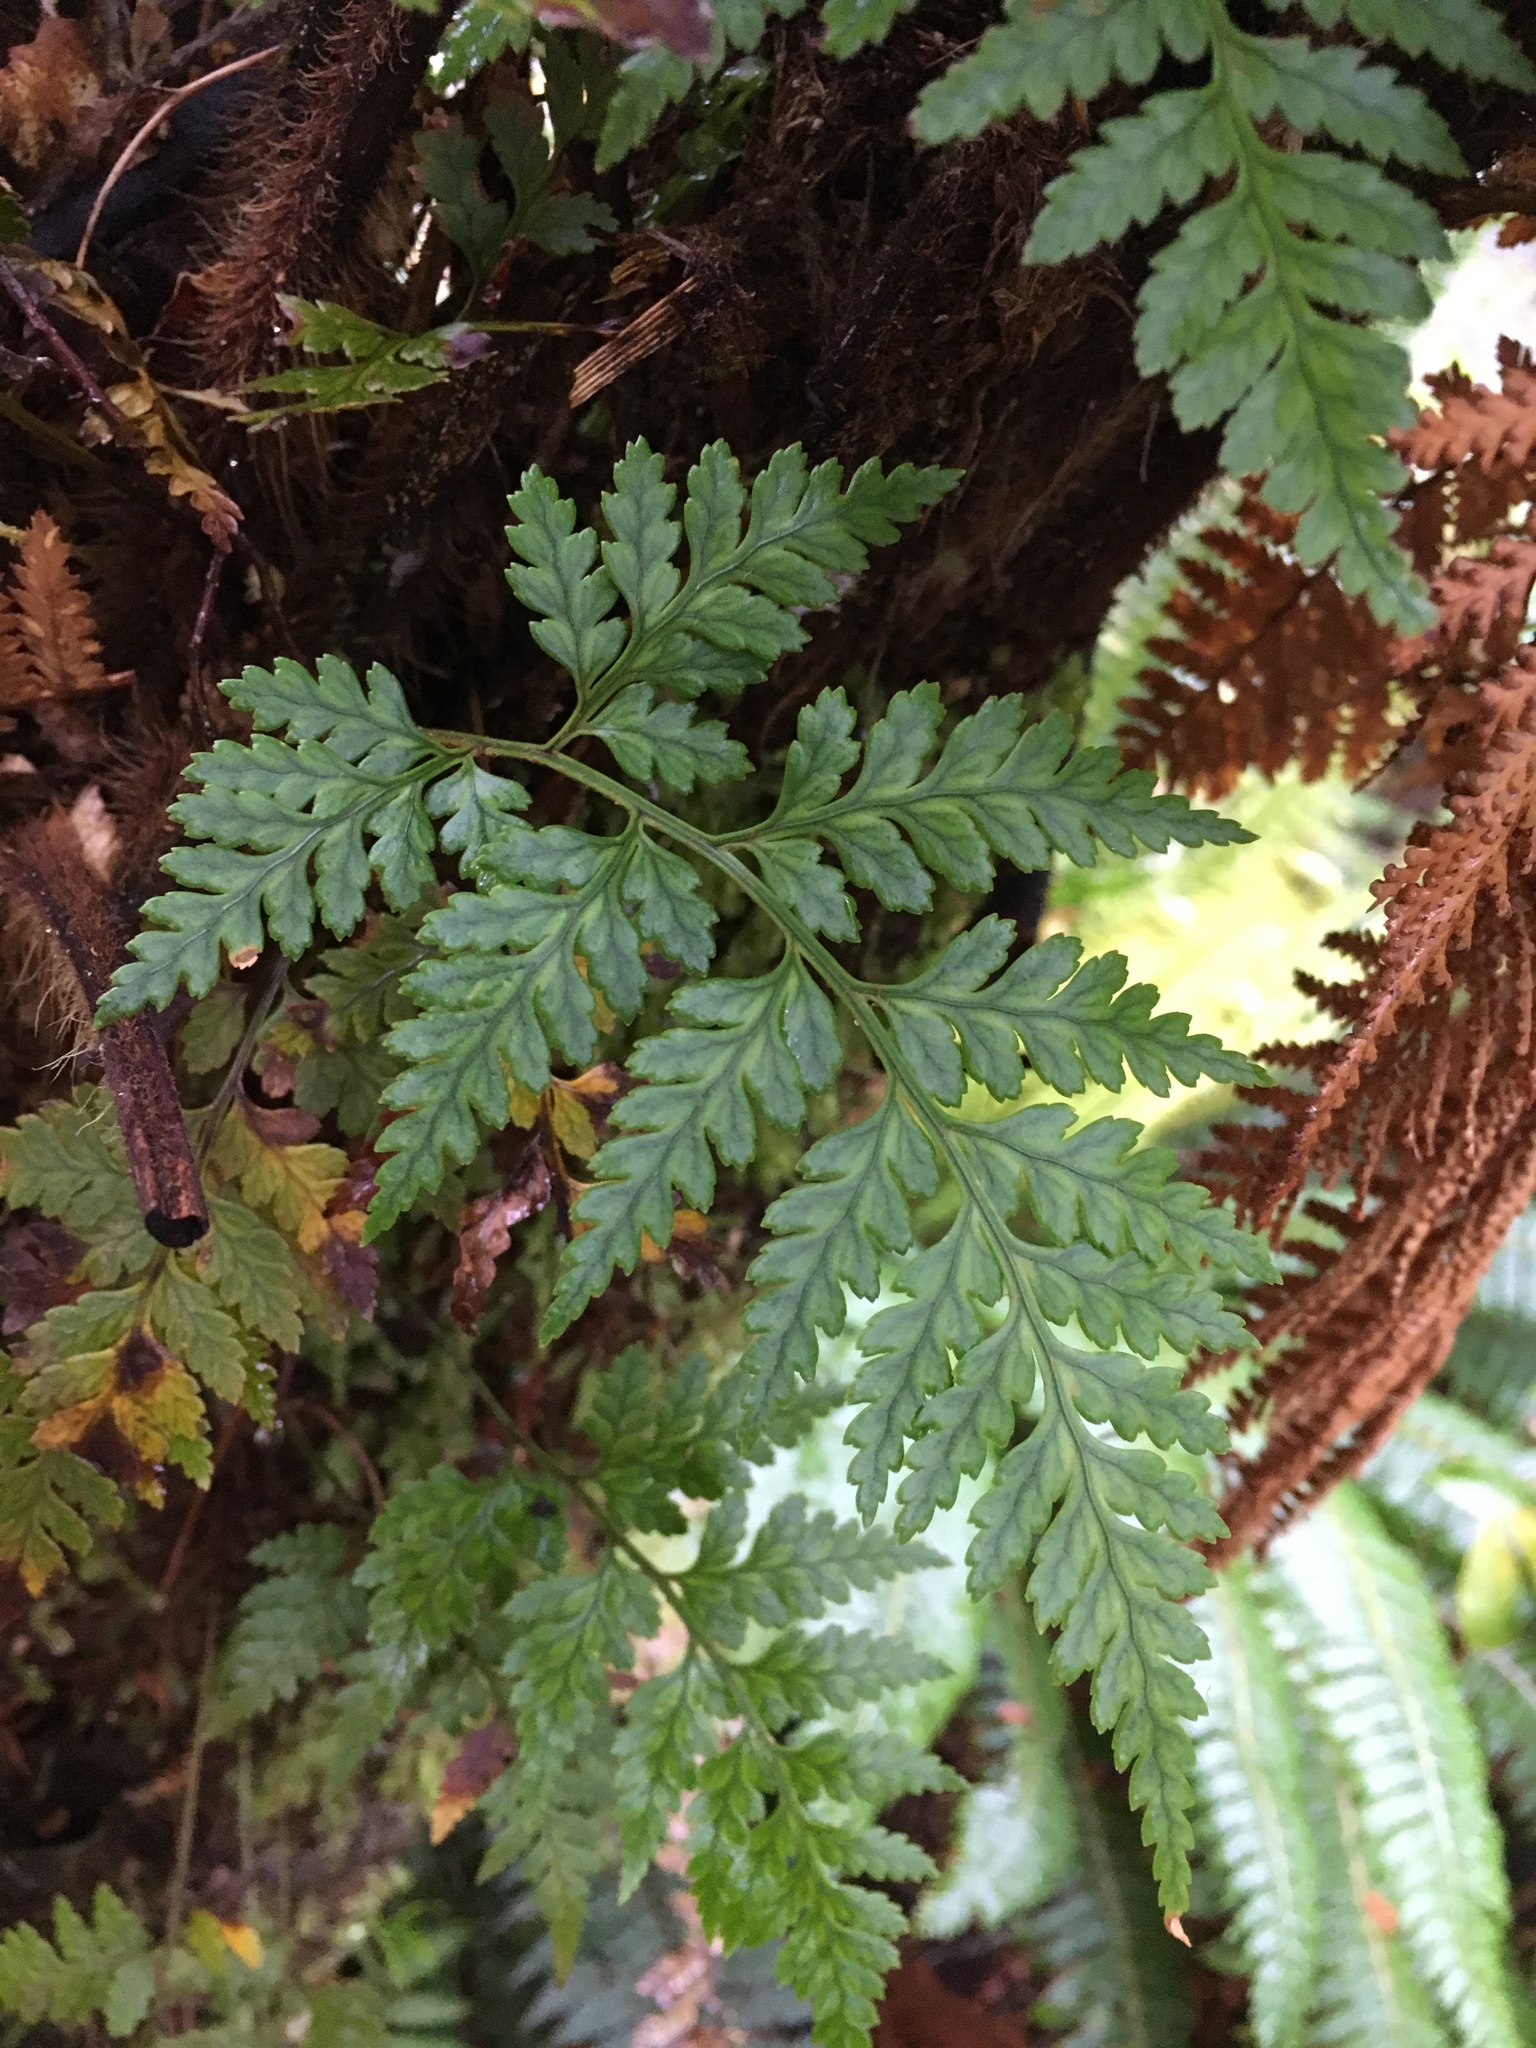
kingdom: Plantae
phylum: Tracheophyta
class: Polypodiopsida
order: Polypodiales
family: Dryopteridaceae
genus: Rumohra
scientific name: Rumohra adiantiformis
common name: Leather fern
